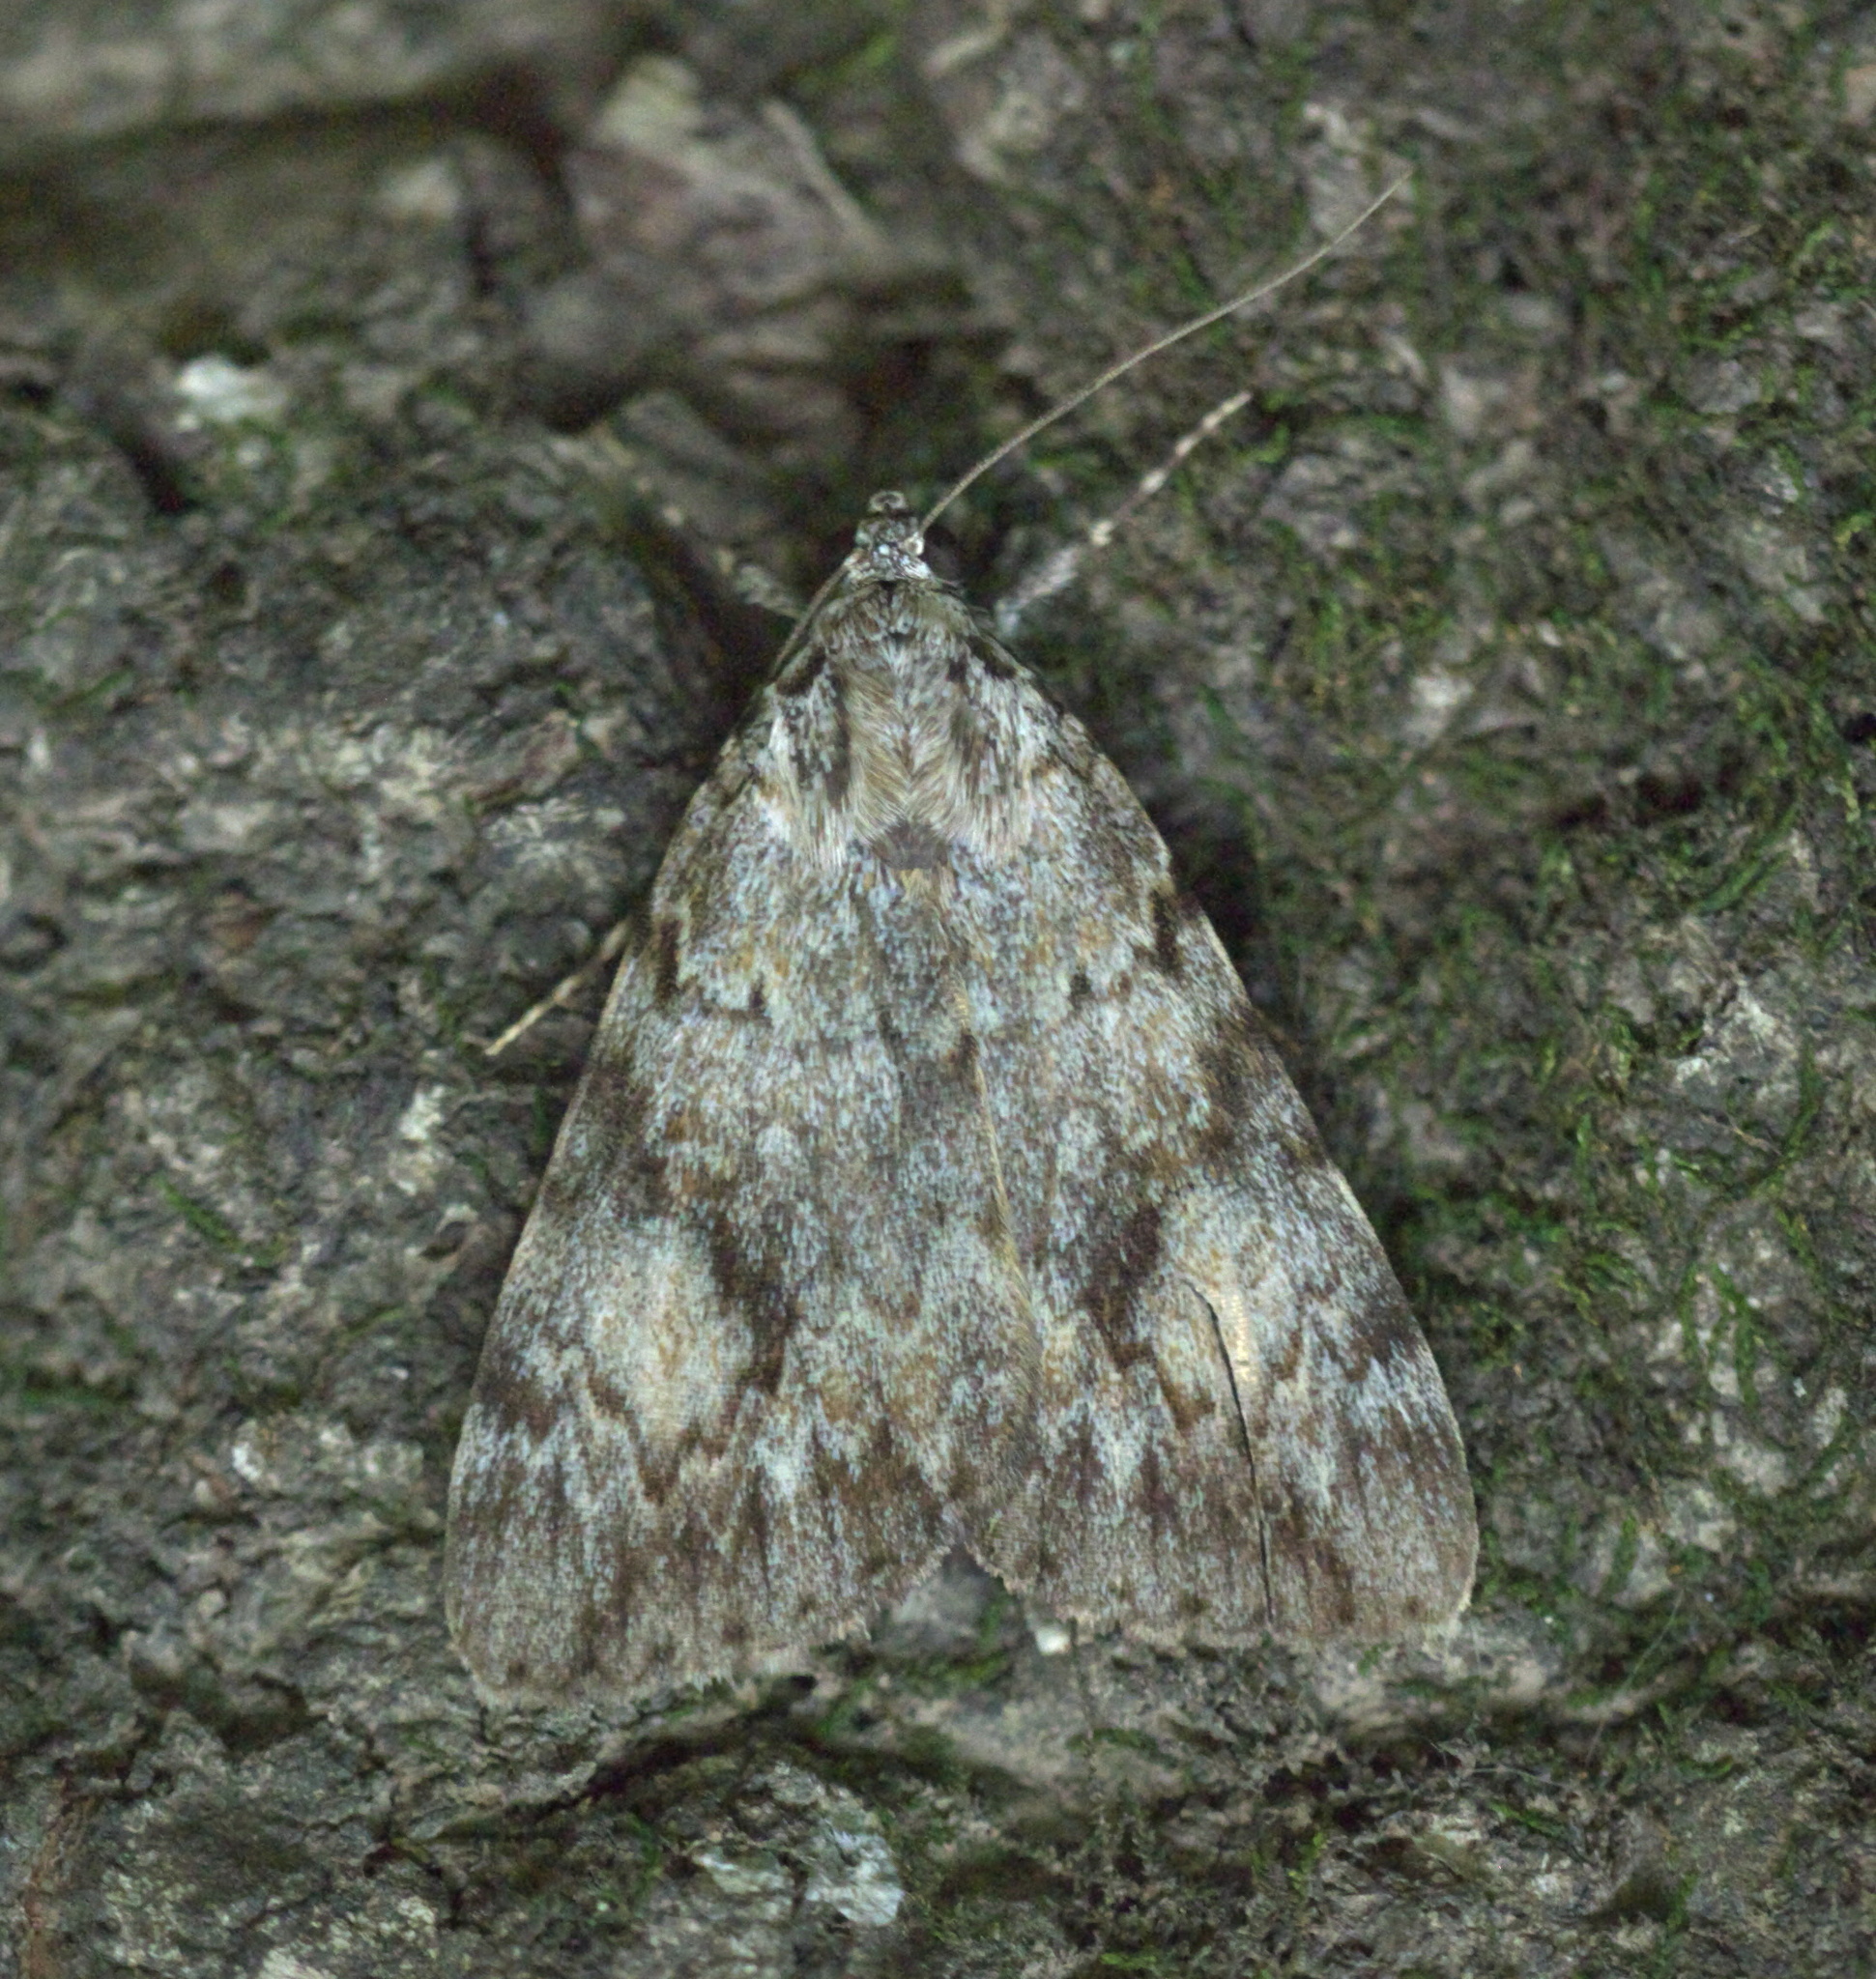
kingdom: Animalia
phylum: Arthropoda
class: Insecta
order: Lepidoptera
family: Erebidae
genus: Catocala
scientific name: Catocala amica
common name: Girlfriend underwing
